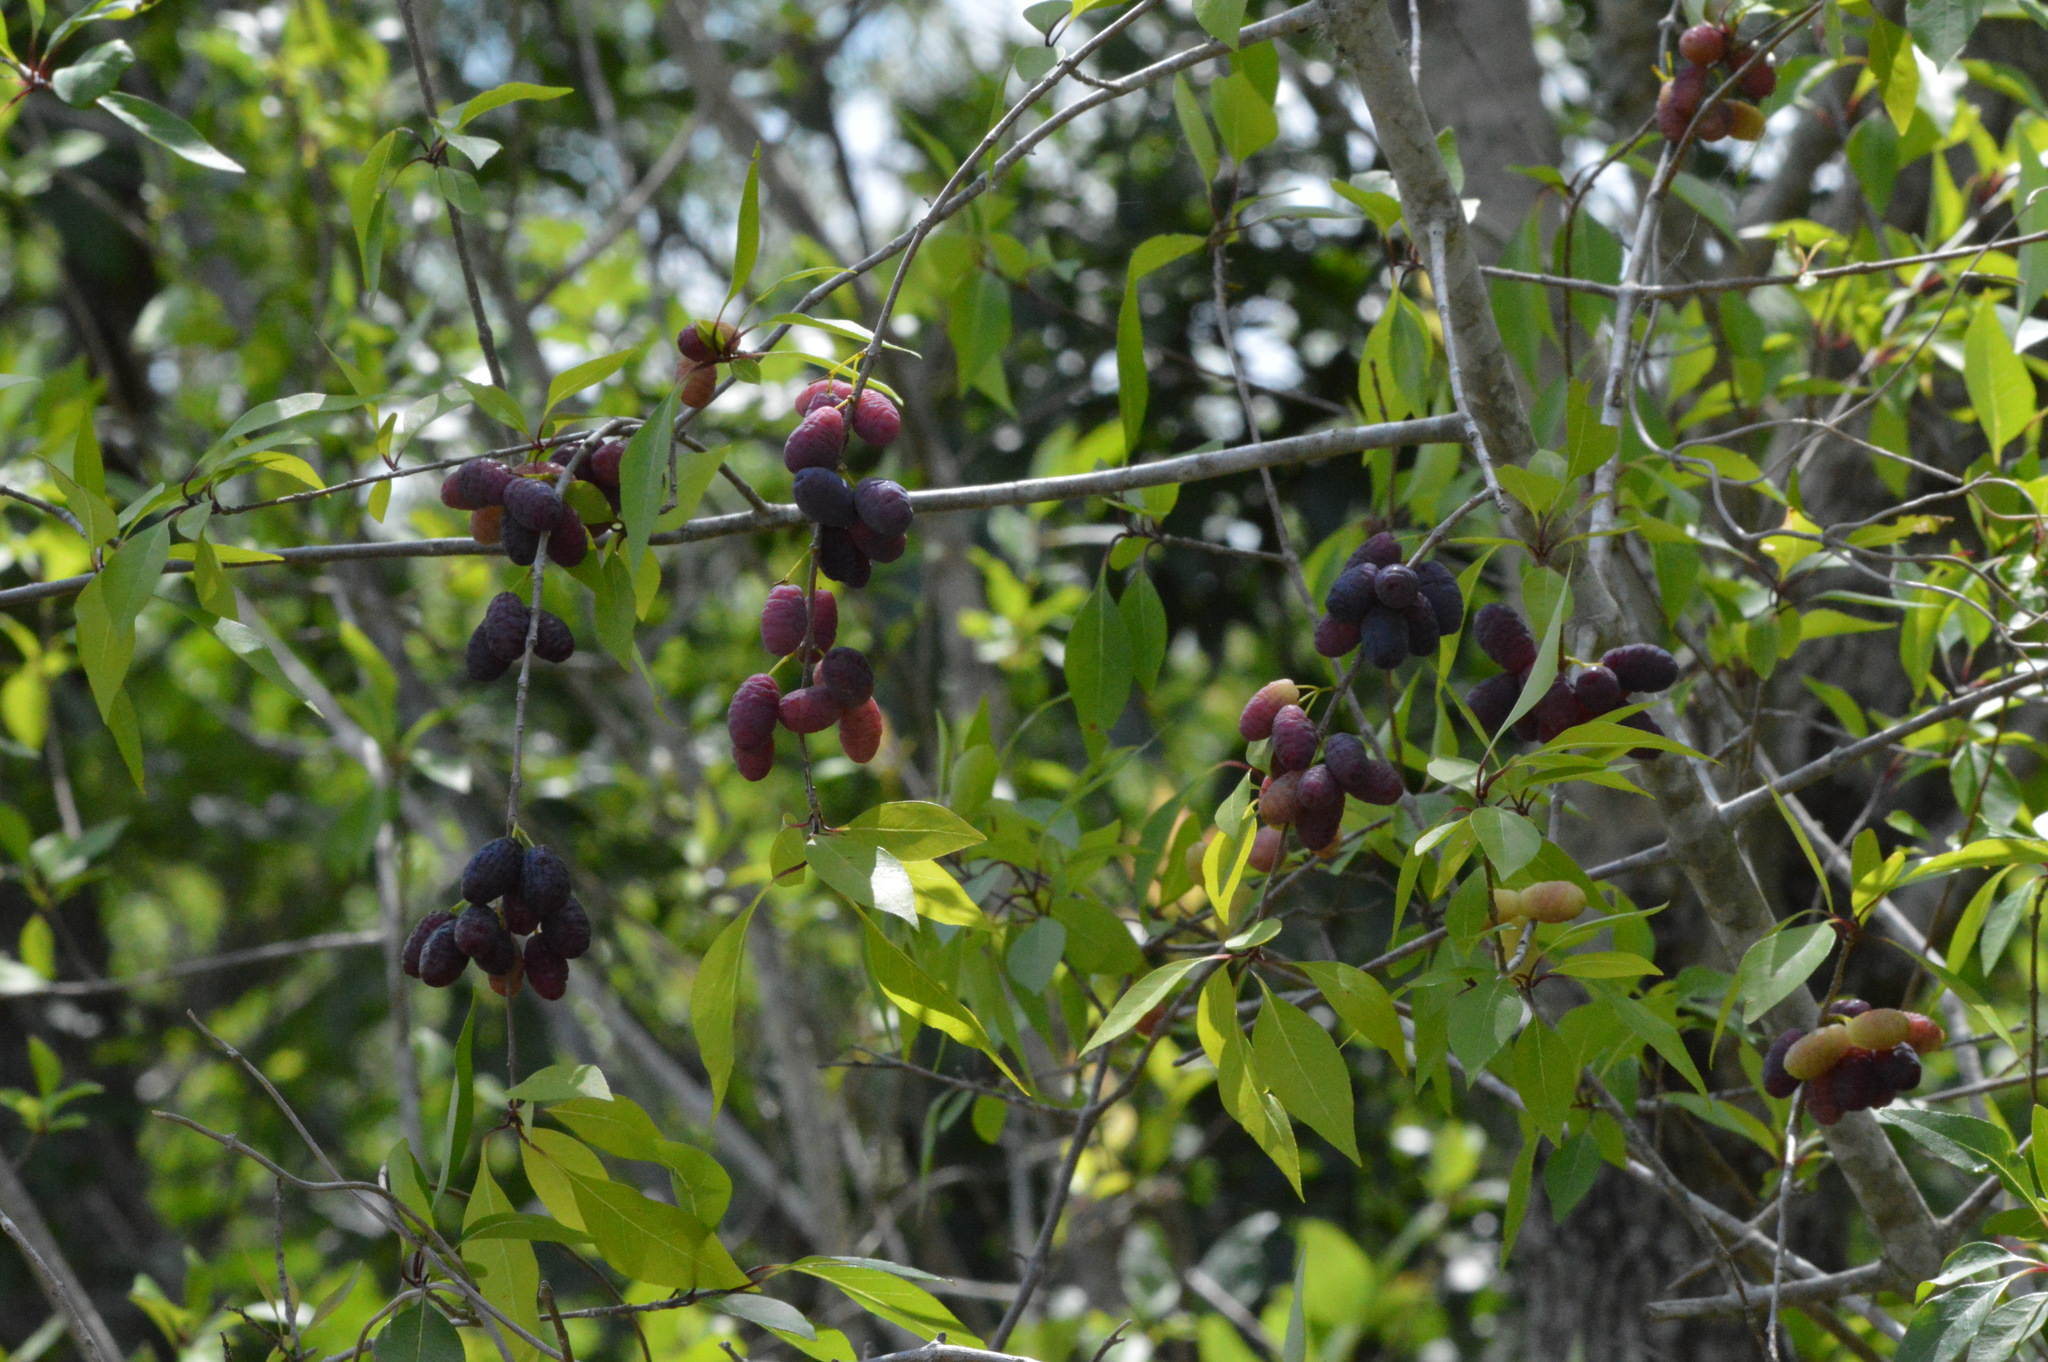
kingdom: Plantae
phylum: Tracheophyta
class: Magnoliopsida
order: Lamiales
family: Oleaceae
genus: Forestiera
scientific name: Forestiera acuminata
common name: Swamp-privet
